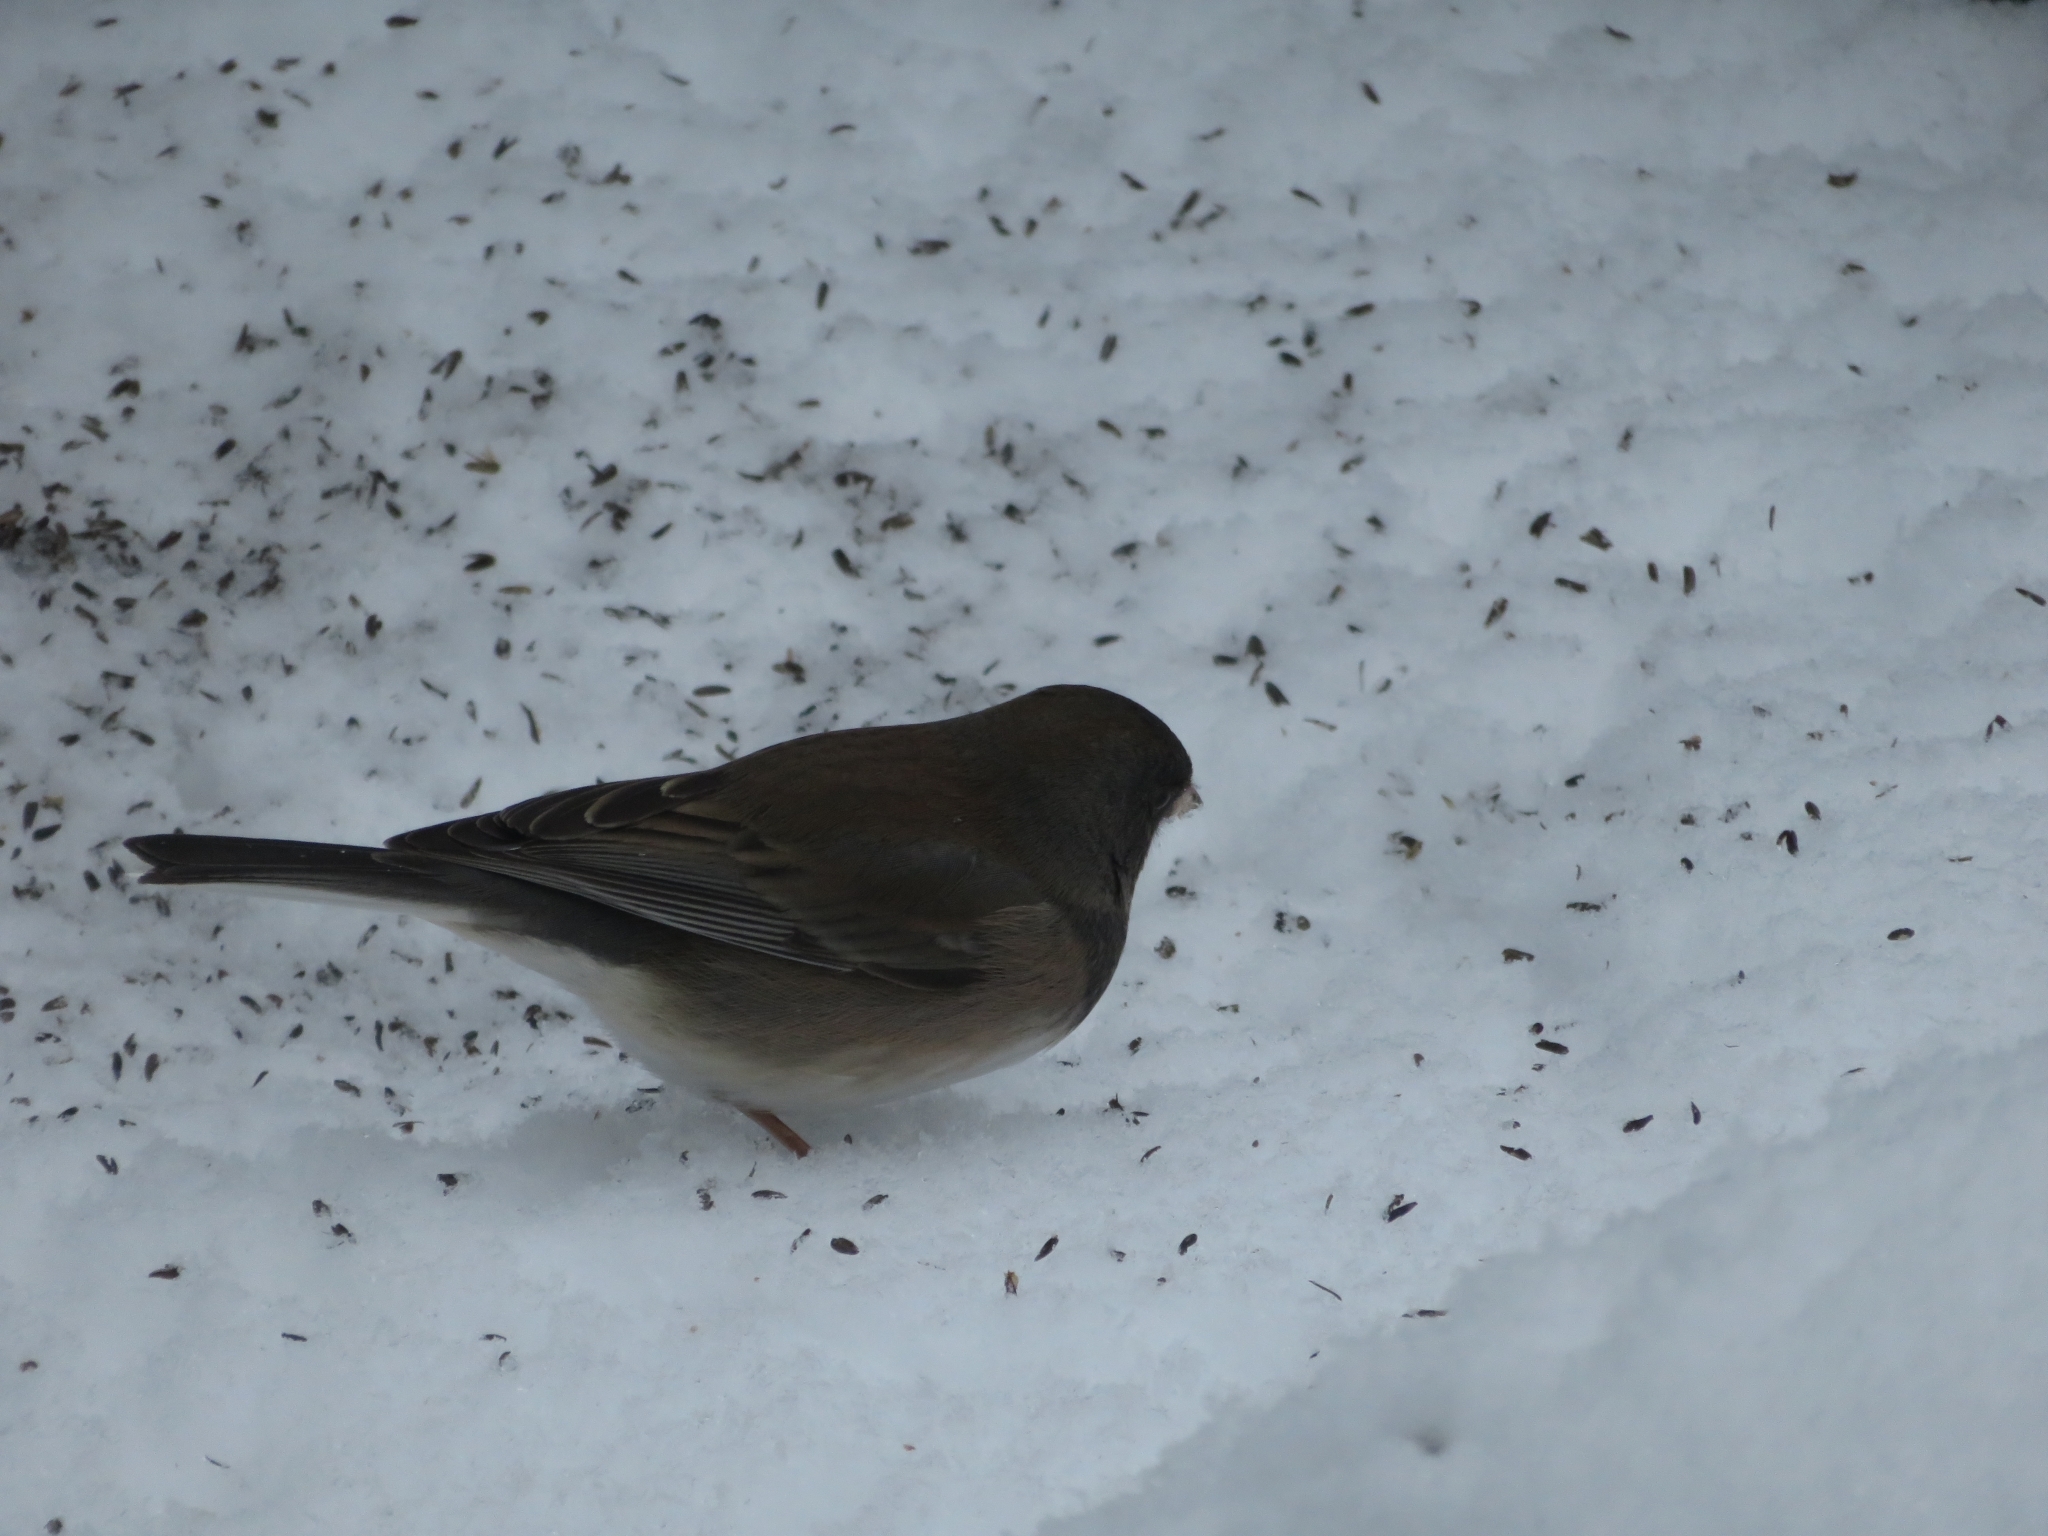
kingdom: Animalia
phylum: Chordata
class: Aves
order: Passeriformes
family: Passerellidae
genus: Junco
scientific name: Junco hyemalis
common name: Dark-eyed junco
